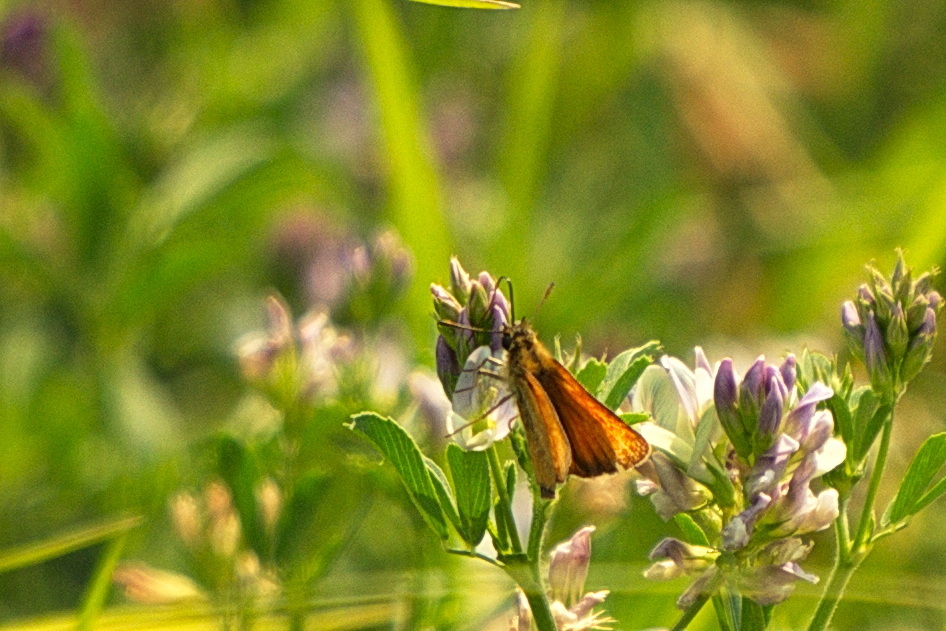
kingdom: Animalia
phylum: Arthropoda
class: Insecta
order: Lepidoptera
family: Hesperiidae
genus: Thymelicus
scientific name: Thymelicus lineola
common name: Essex skipper
